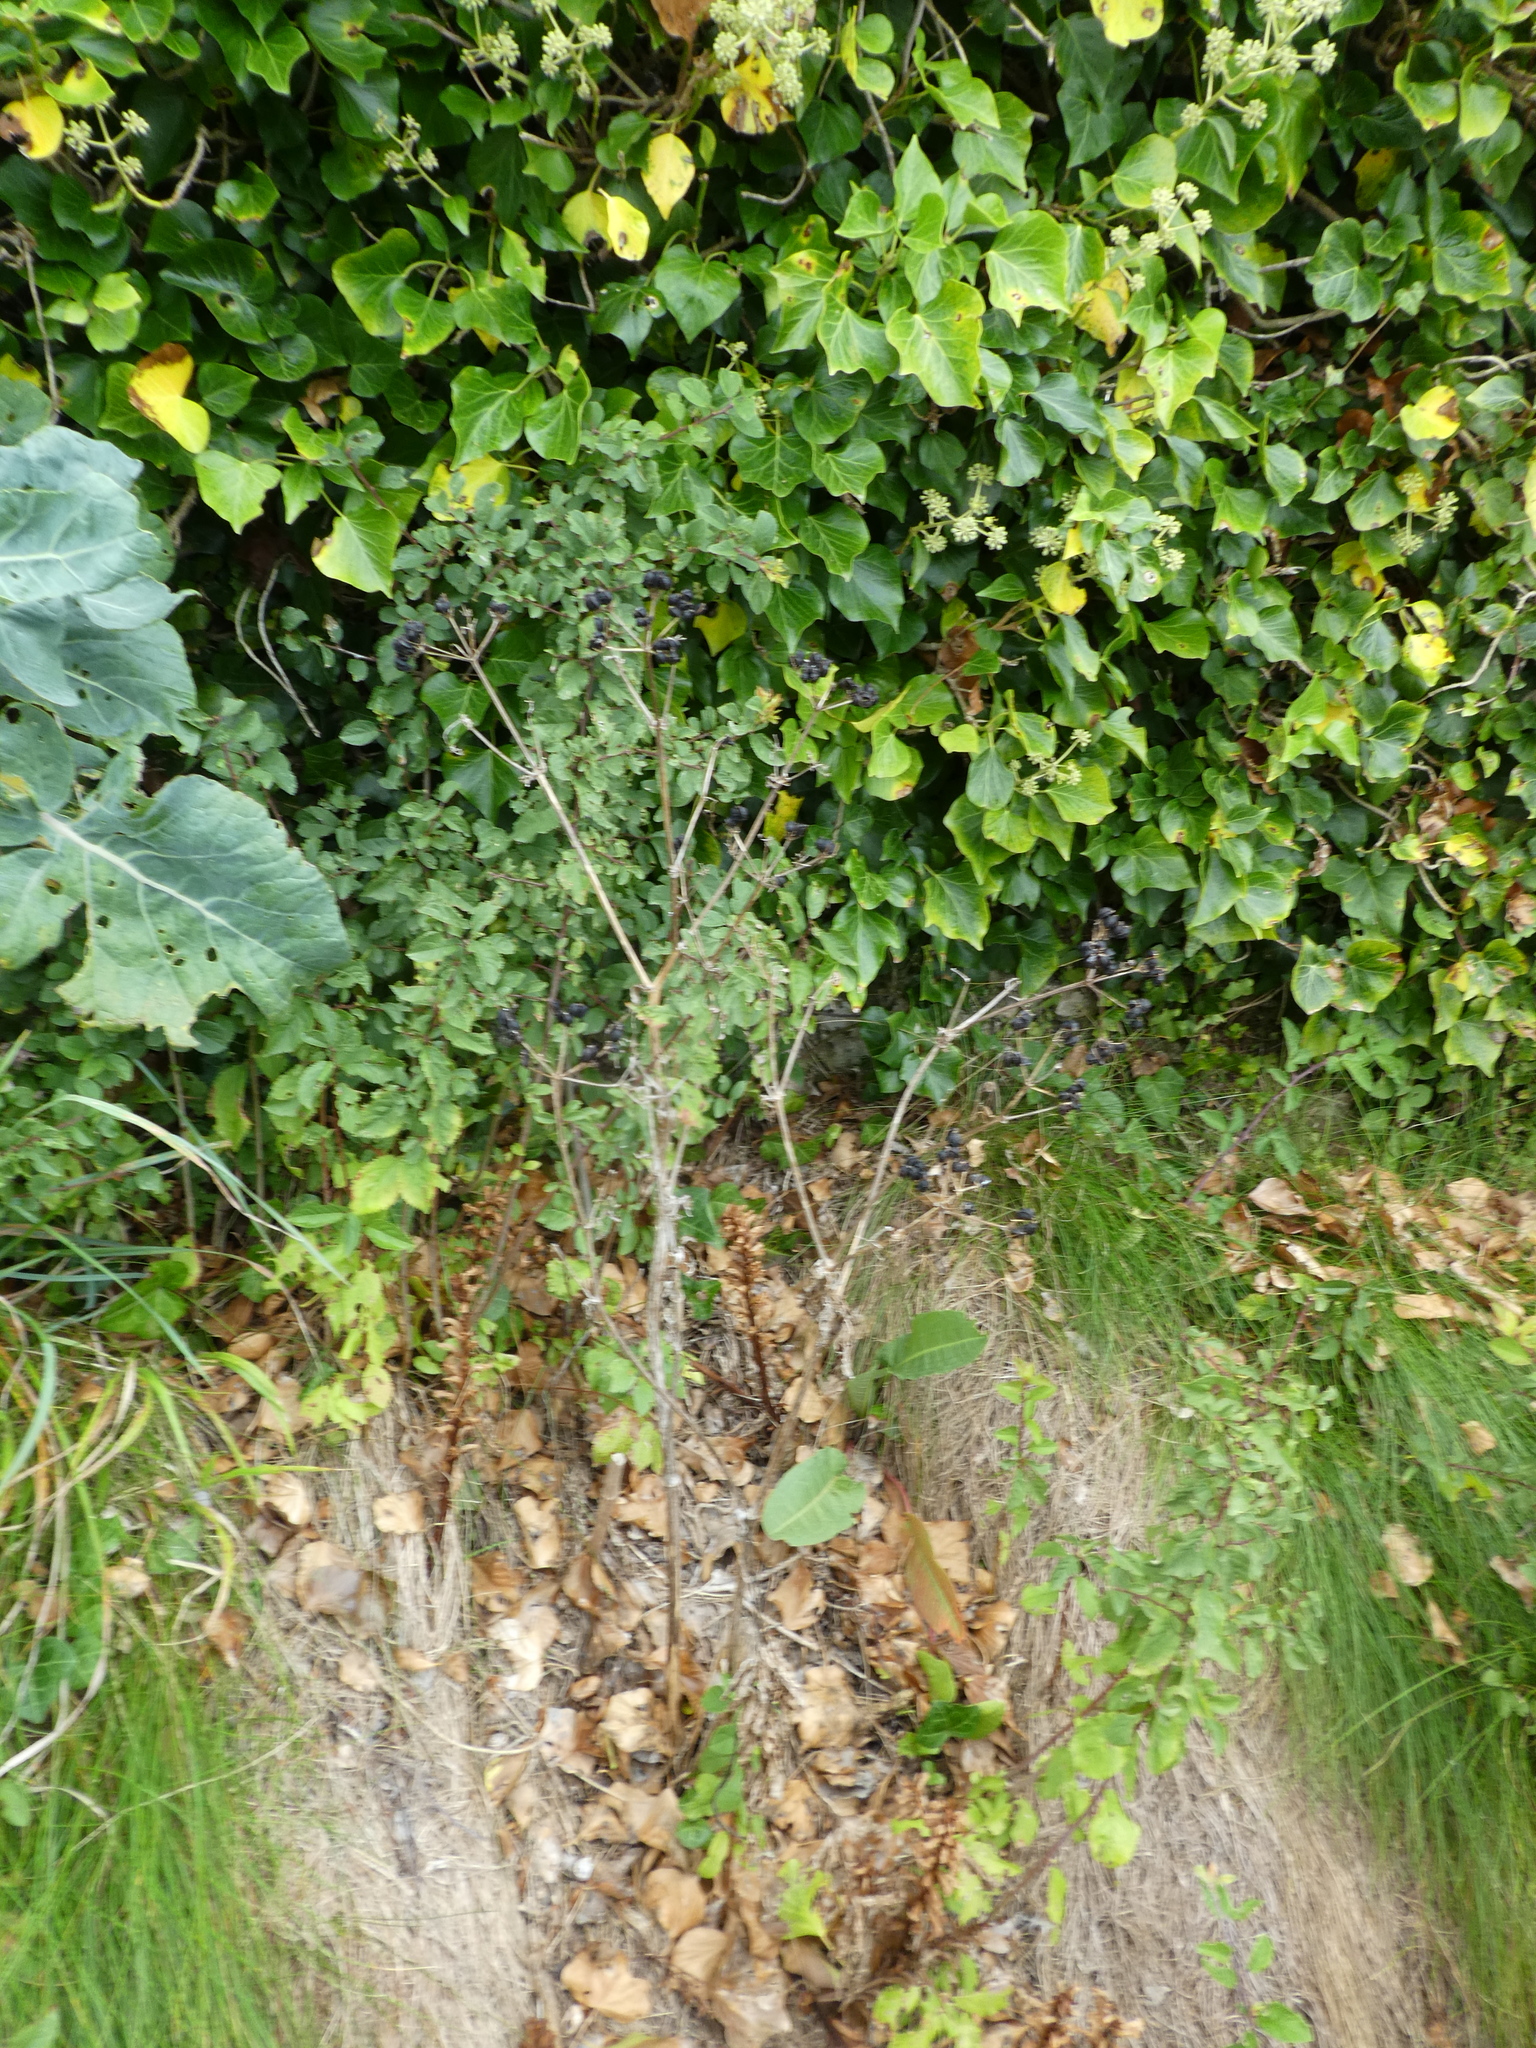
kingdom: Plantae
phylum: Tracheophyta
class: Magnoliopsida
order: Apiales
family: Apiaceae
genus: Smyrnium
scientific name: Smyrnium olusatrum
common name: Alexanders
